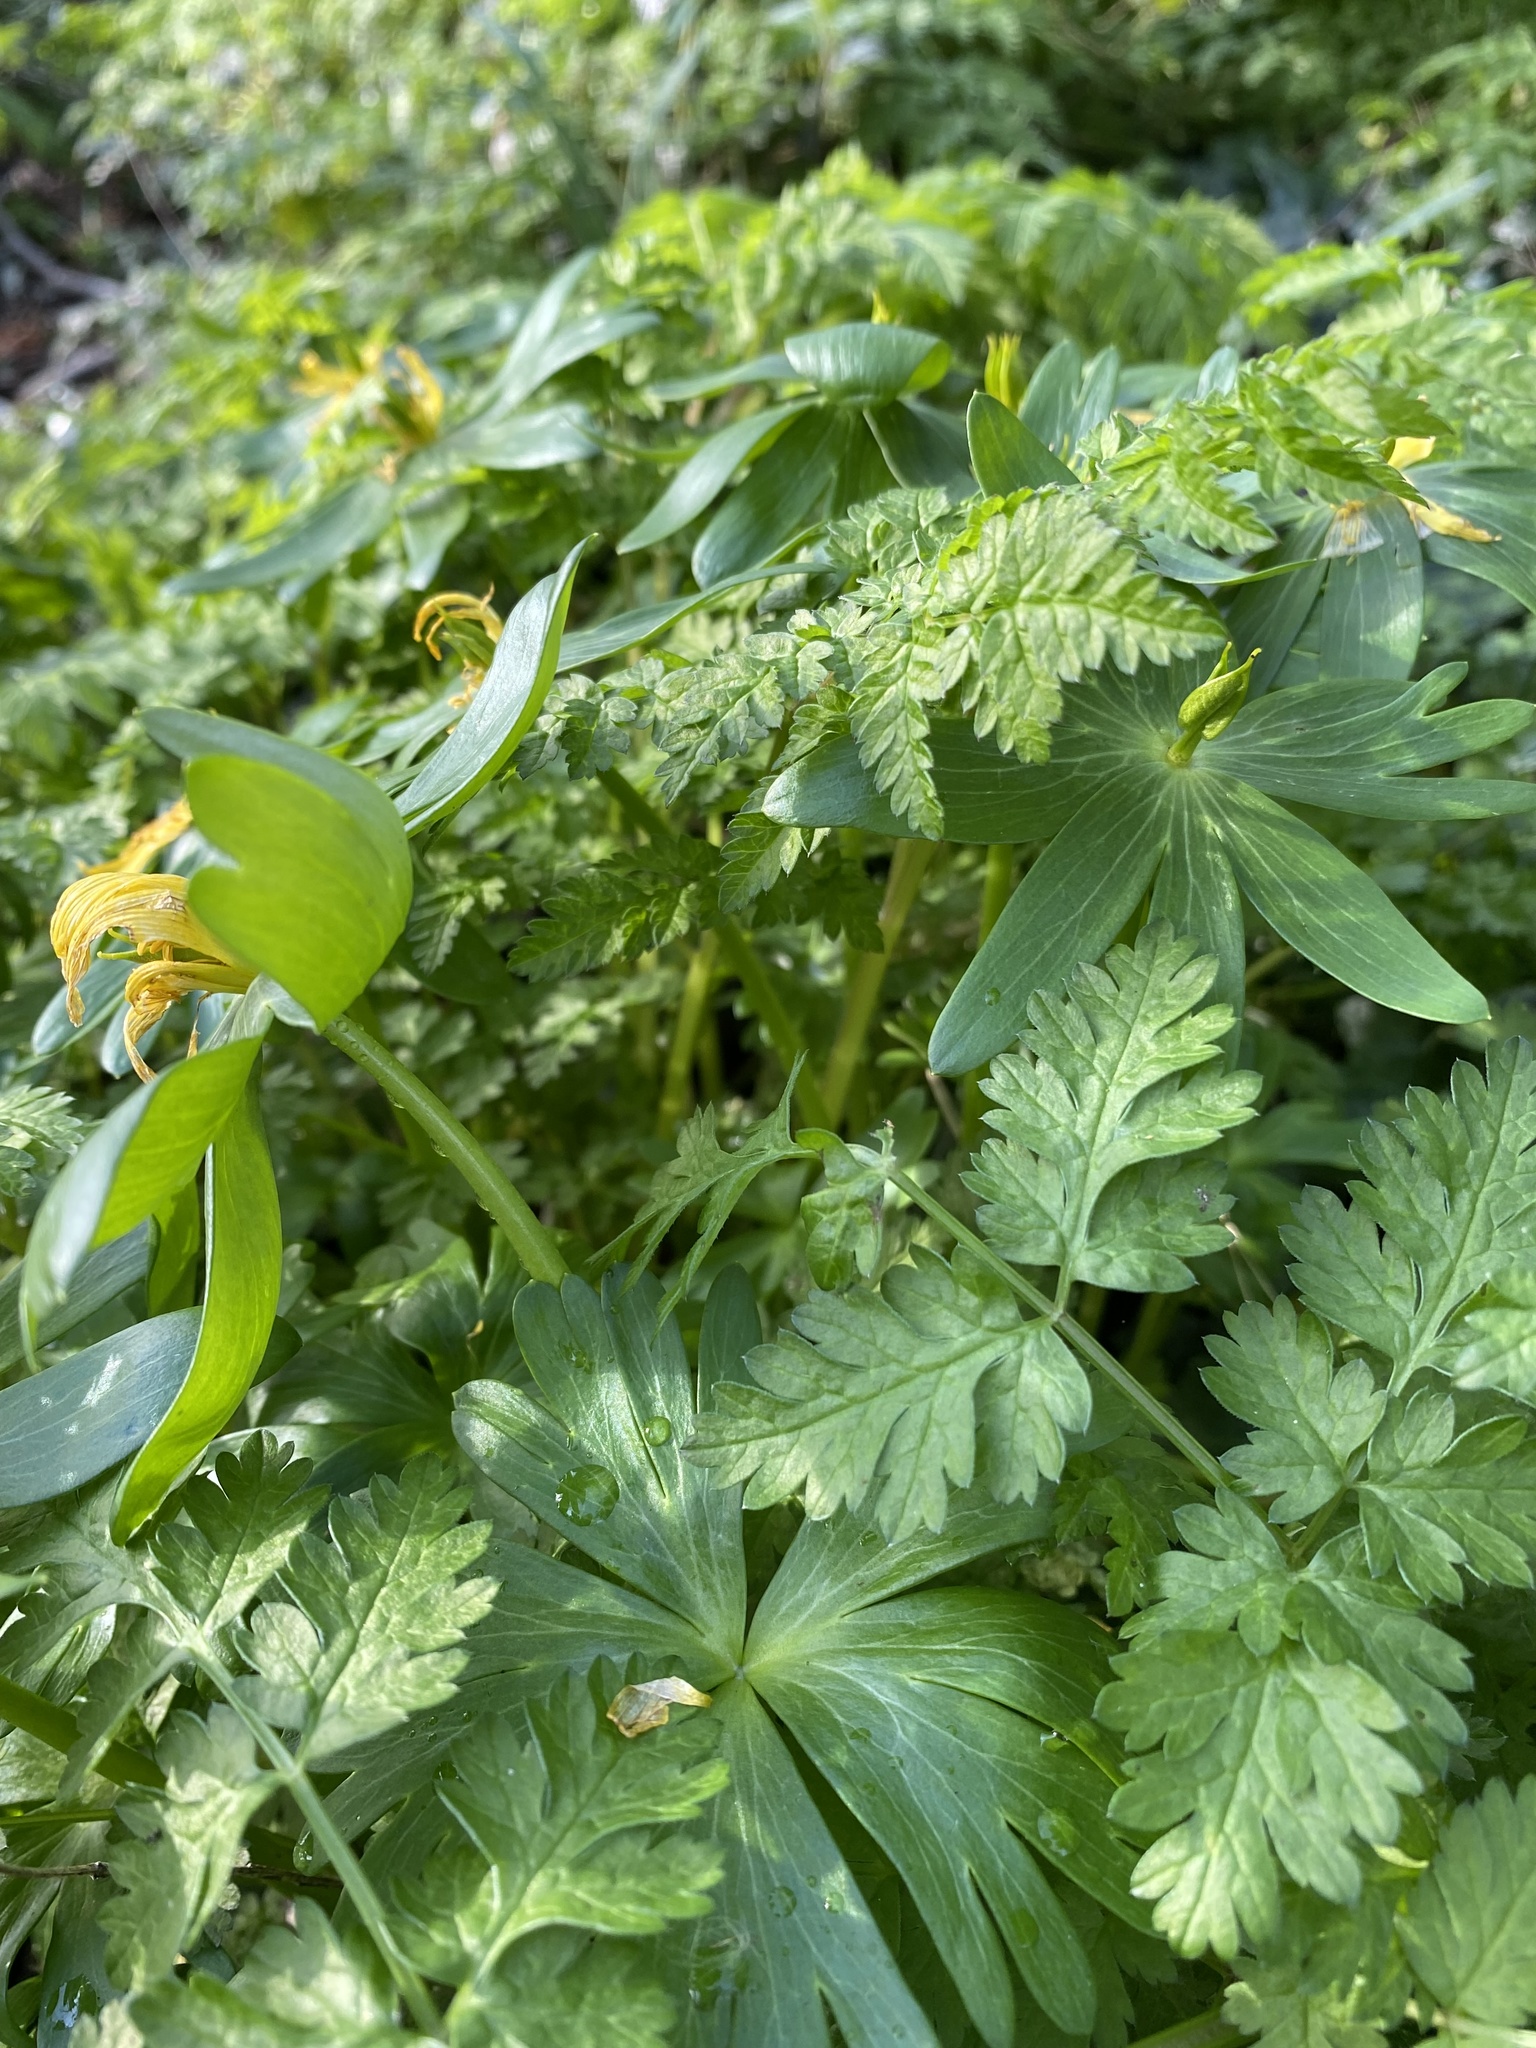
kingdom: Plantae
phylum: Tracheophyta
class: Magnoliopsida
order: Ranunculales
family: Ranunculaceae
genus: Eranthis
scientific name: Eranthis hyemalis
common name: Winter aconite
